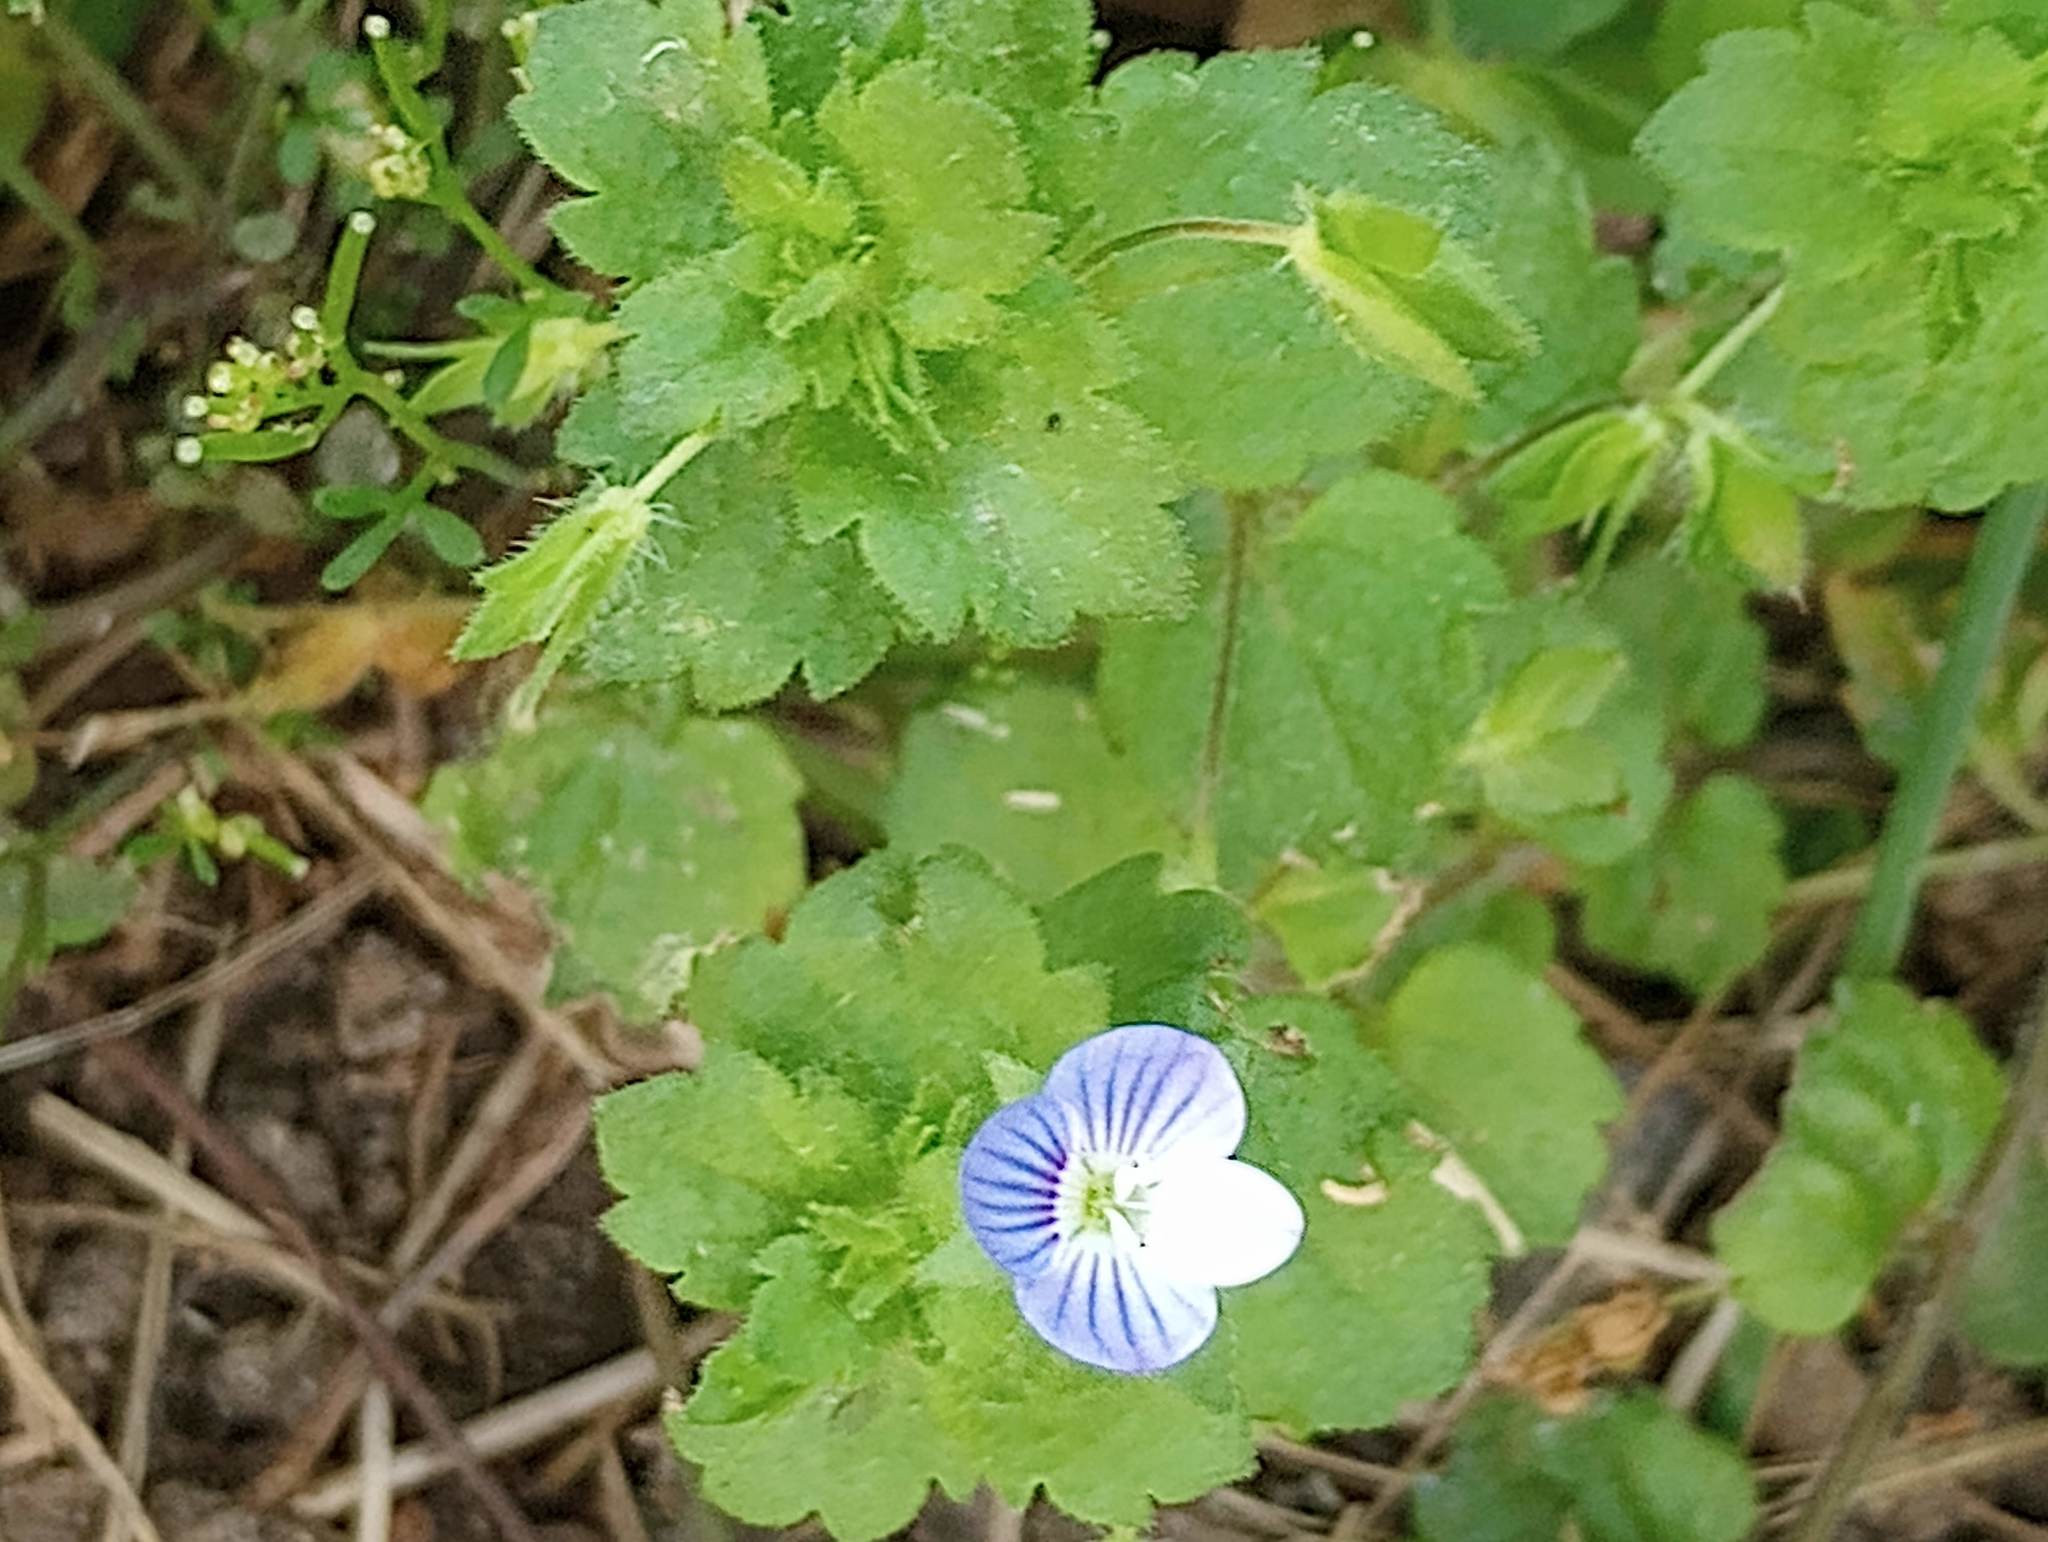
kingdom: Plantae
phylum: Tracheophyta
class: Magnoliopsida
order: Lamiales
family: Plantaginaceae
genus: Veronica
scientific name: Veronica persica
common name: Common field-speedwell
